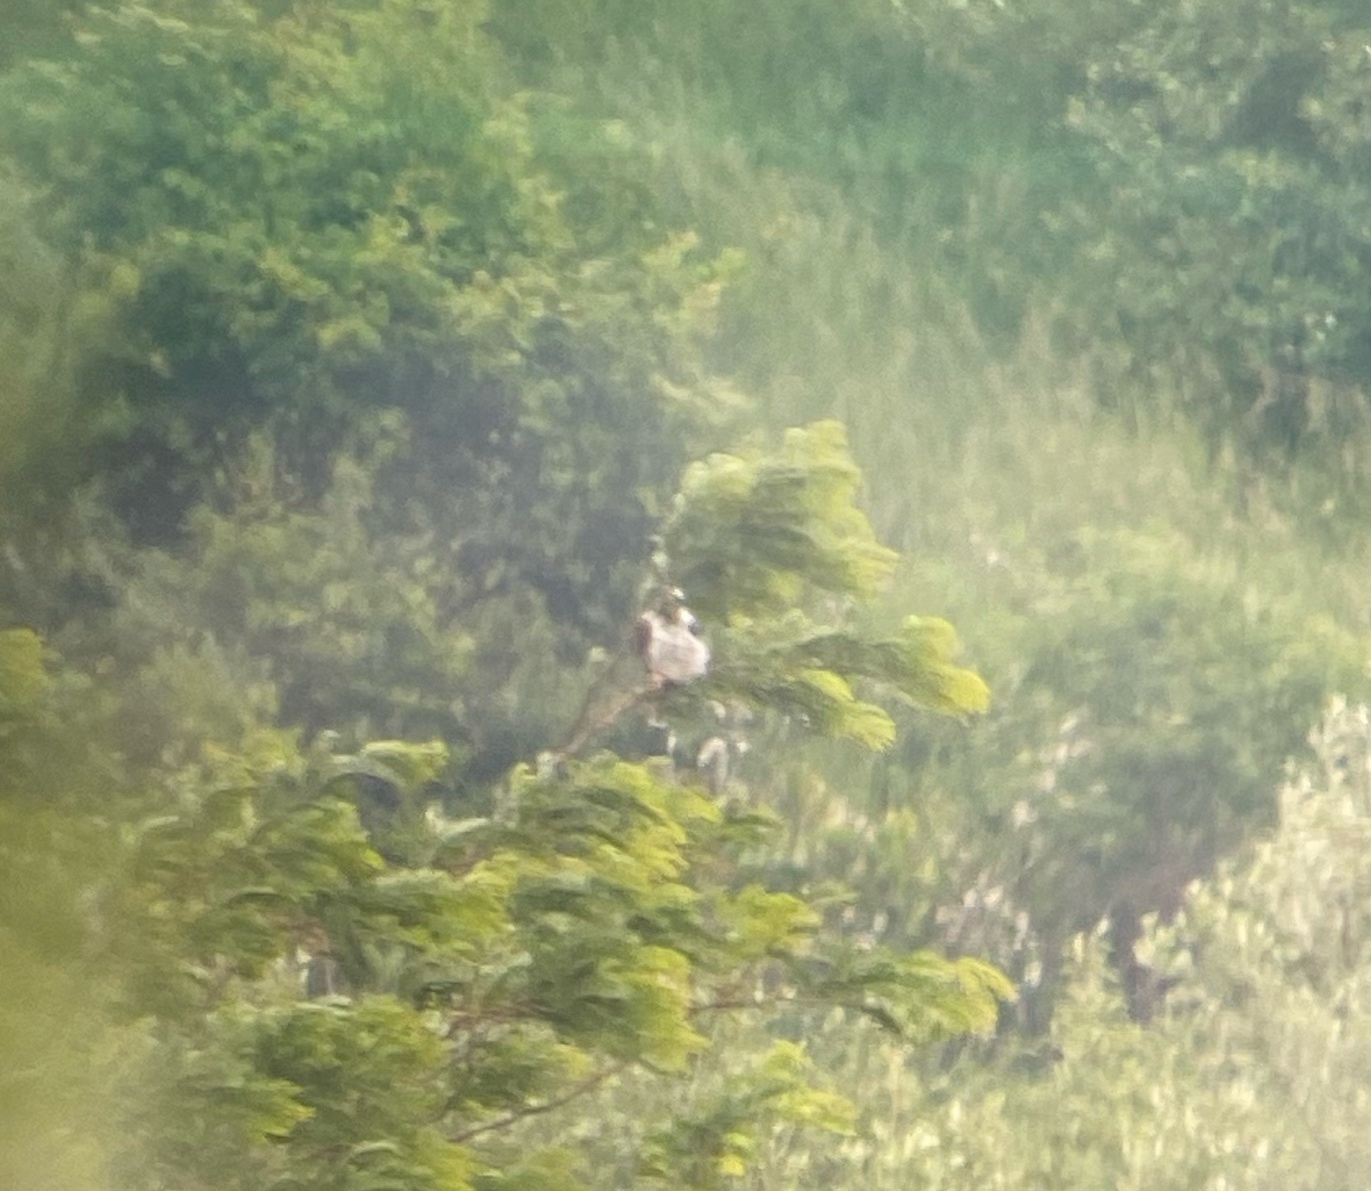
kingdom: Animalia
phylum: Chordata
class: Aves
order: Accipitriformes
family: Accipitridae
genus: Elanus
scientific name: Elanus leucurus
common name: White-tailed kite
